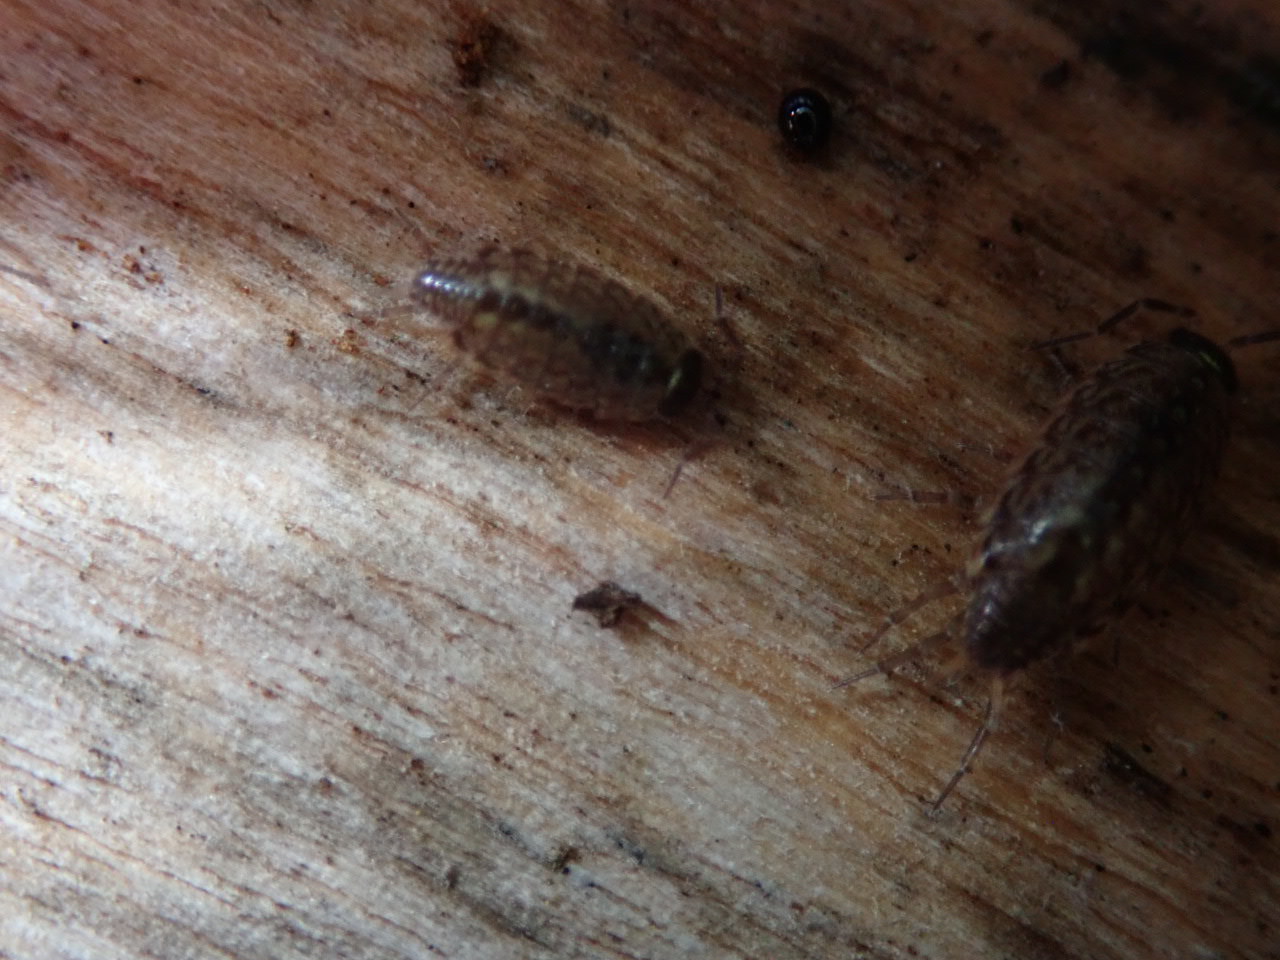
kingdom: Animalia
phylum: Arthropoda
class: Malacostraca
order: Isopoda
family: Philosciidae
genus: Philoscia
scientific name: Philoscia muscorum
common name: Common striped woodlouse
